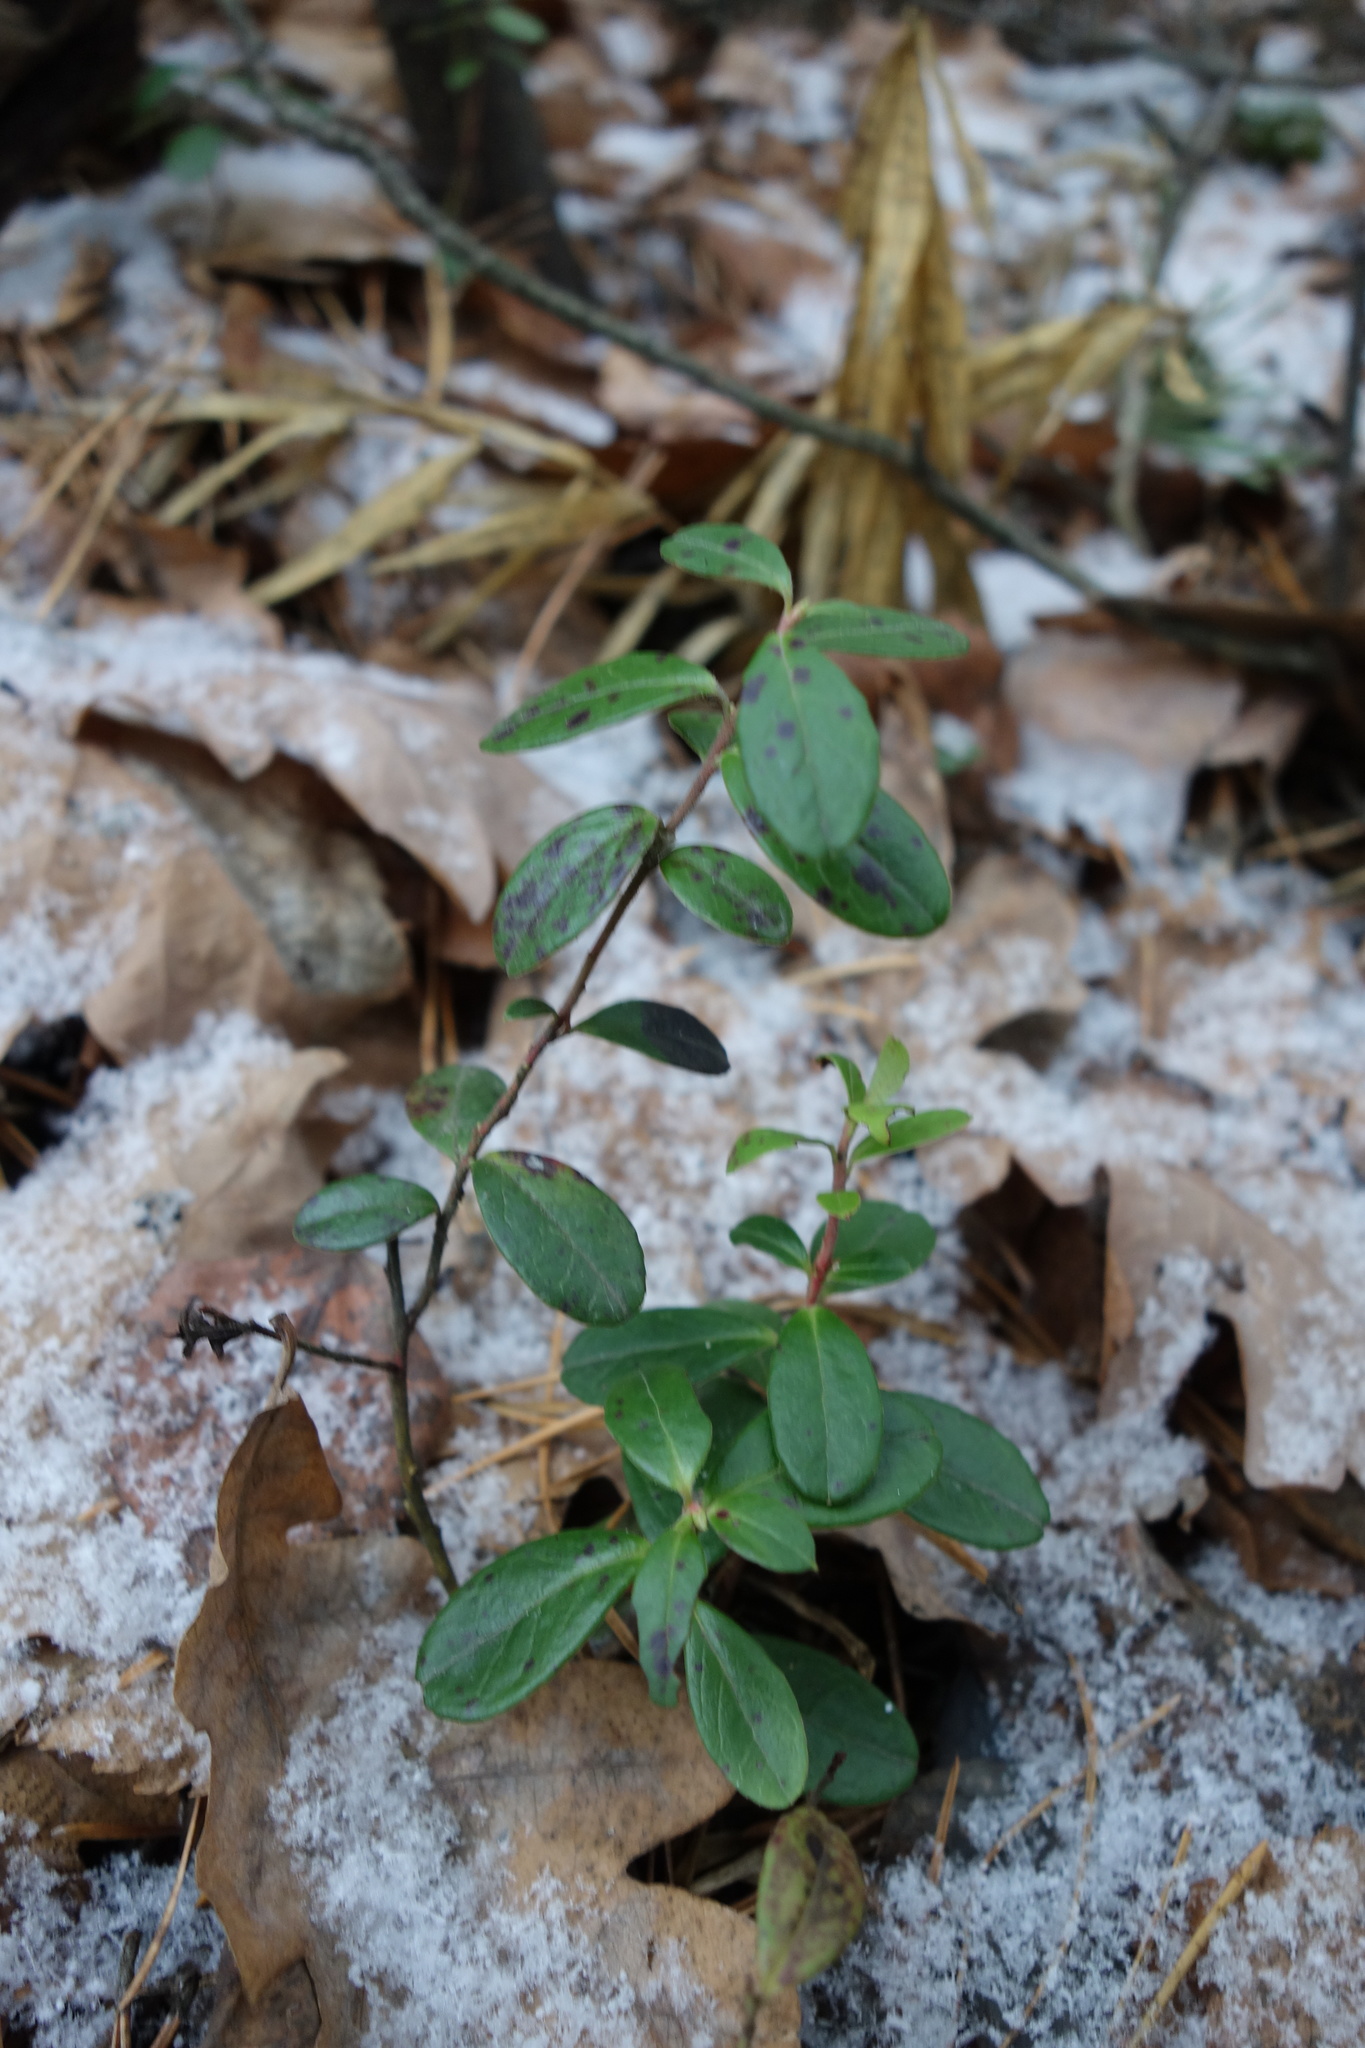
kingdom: Plantae
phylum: Tracheophyta
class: Magnoliopsida
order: Ericales
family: Ericaceae
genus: Vaccinium
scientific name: Vaccinium vitis-idaea
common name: Cowberry
